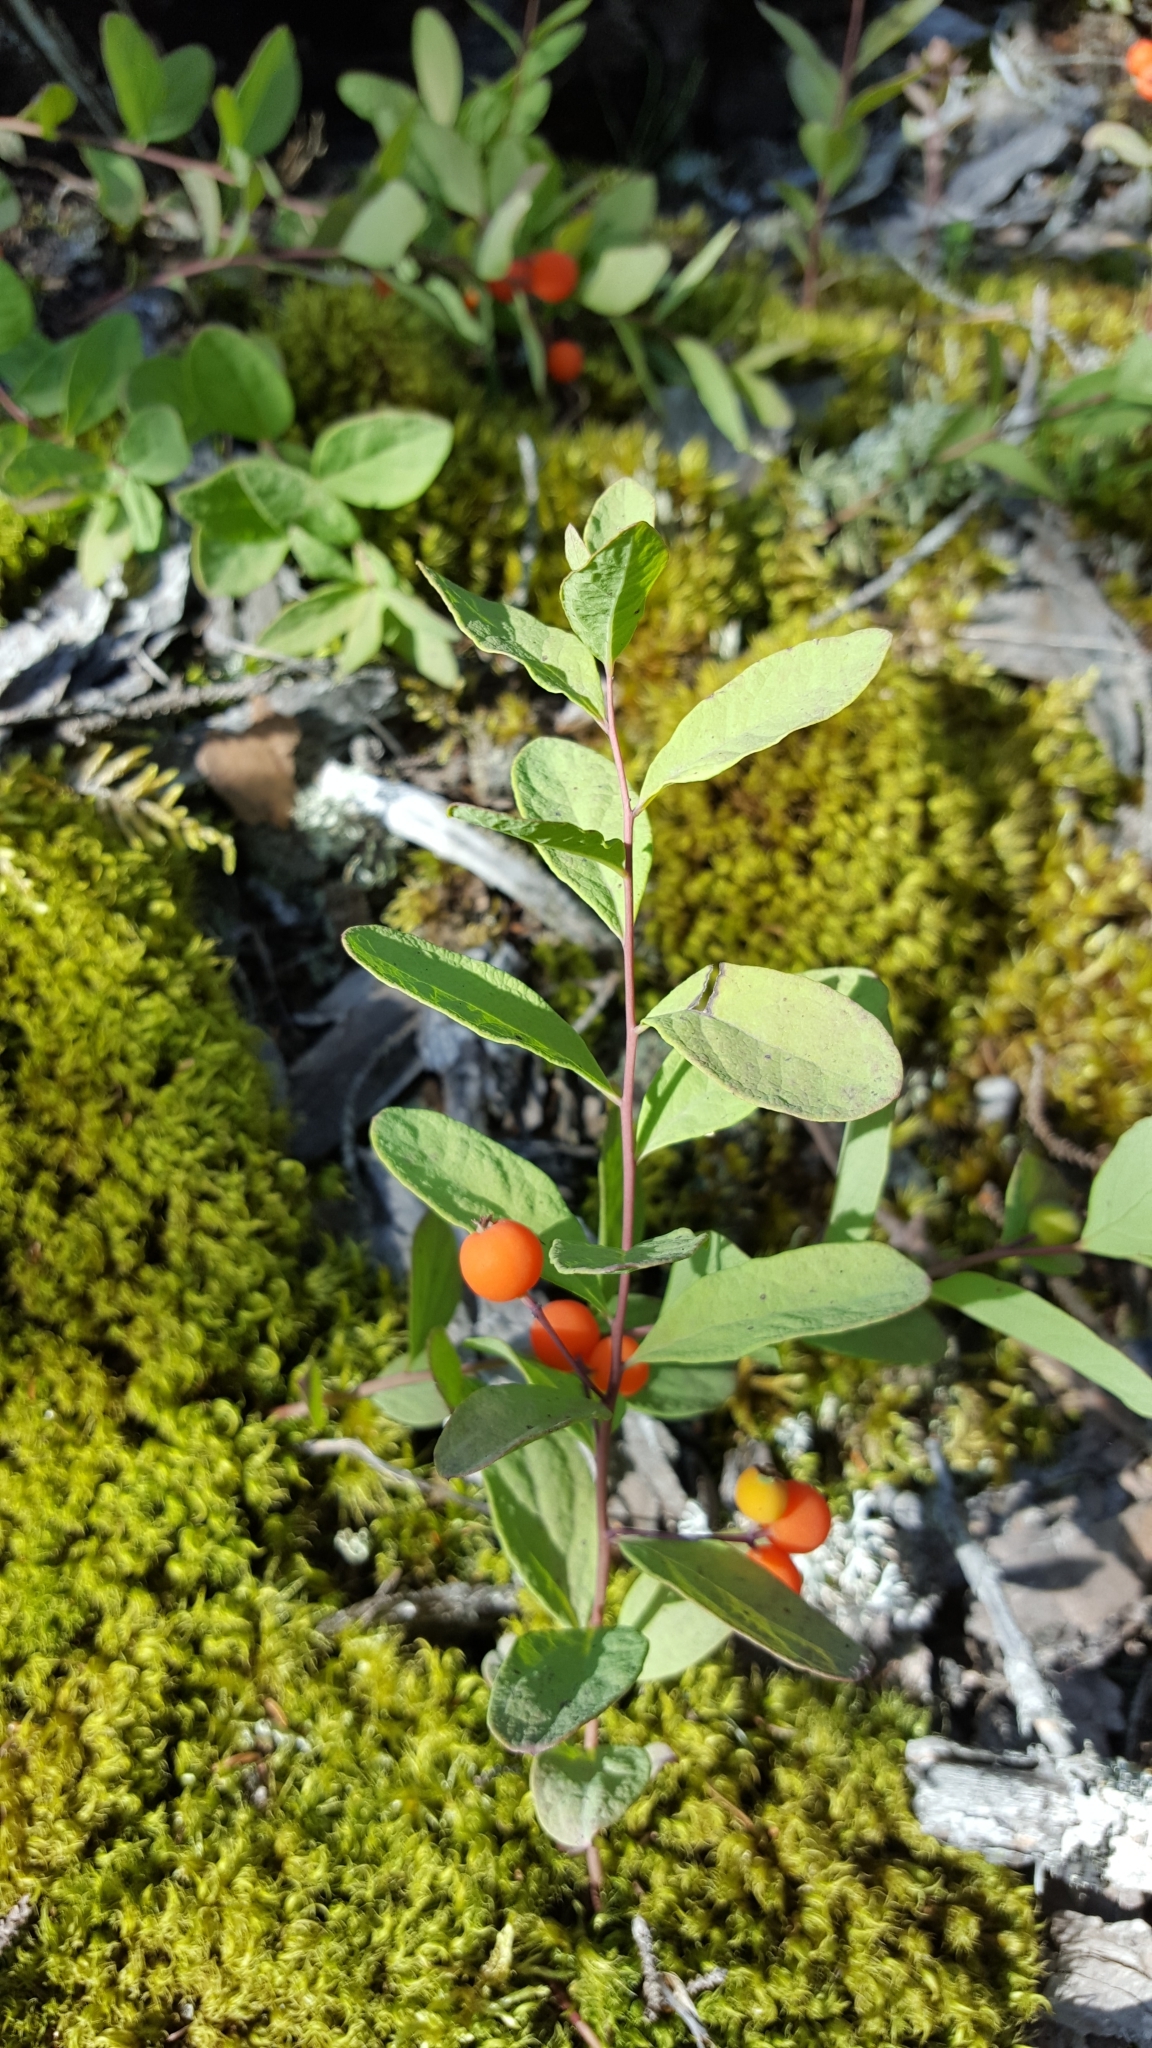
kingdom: Plantae
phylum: Tracheophyta
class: Magnoliopsida
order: Santalales
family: Comandraceae
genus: Geocaulon
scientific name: Geocaulon lividum
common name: Earthberry
